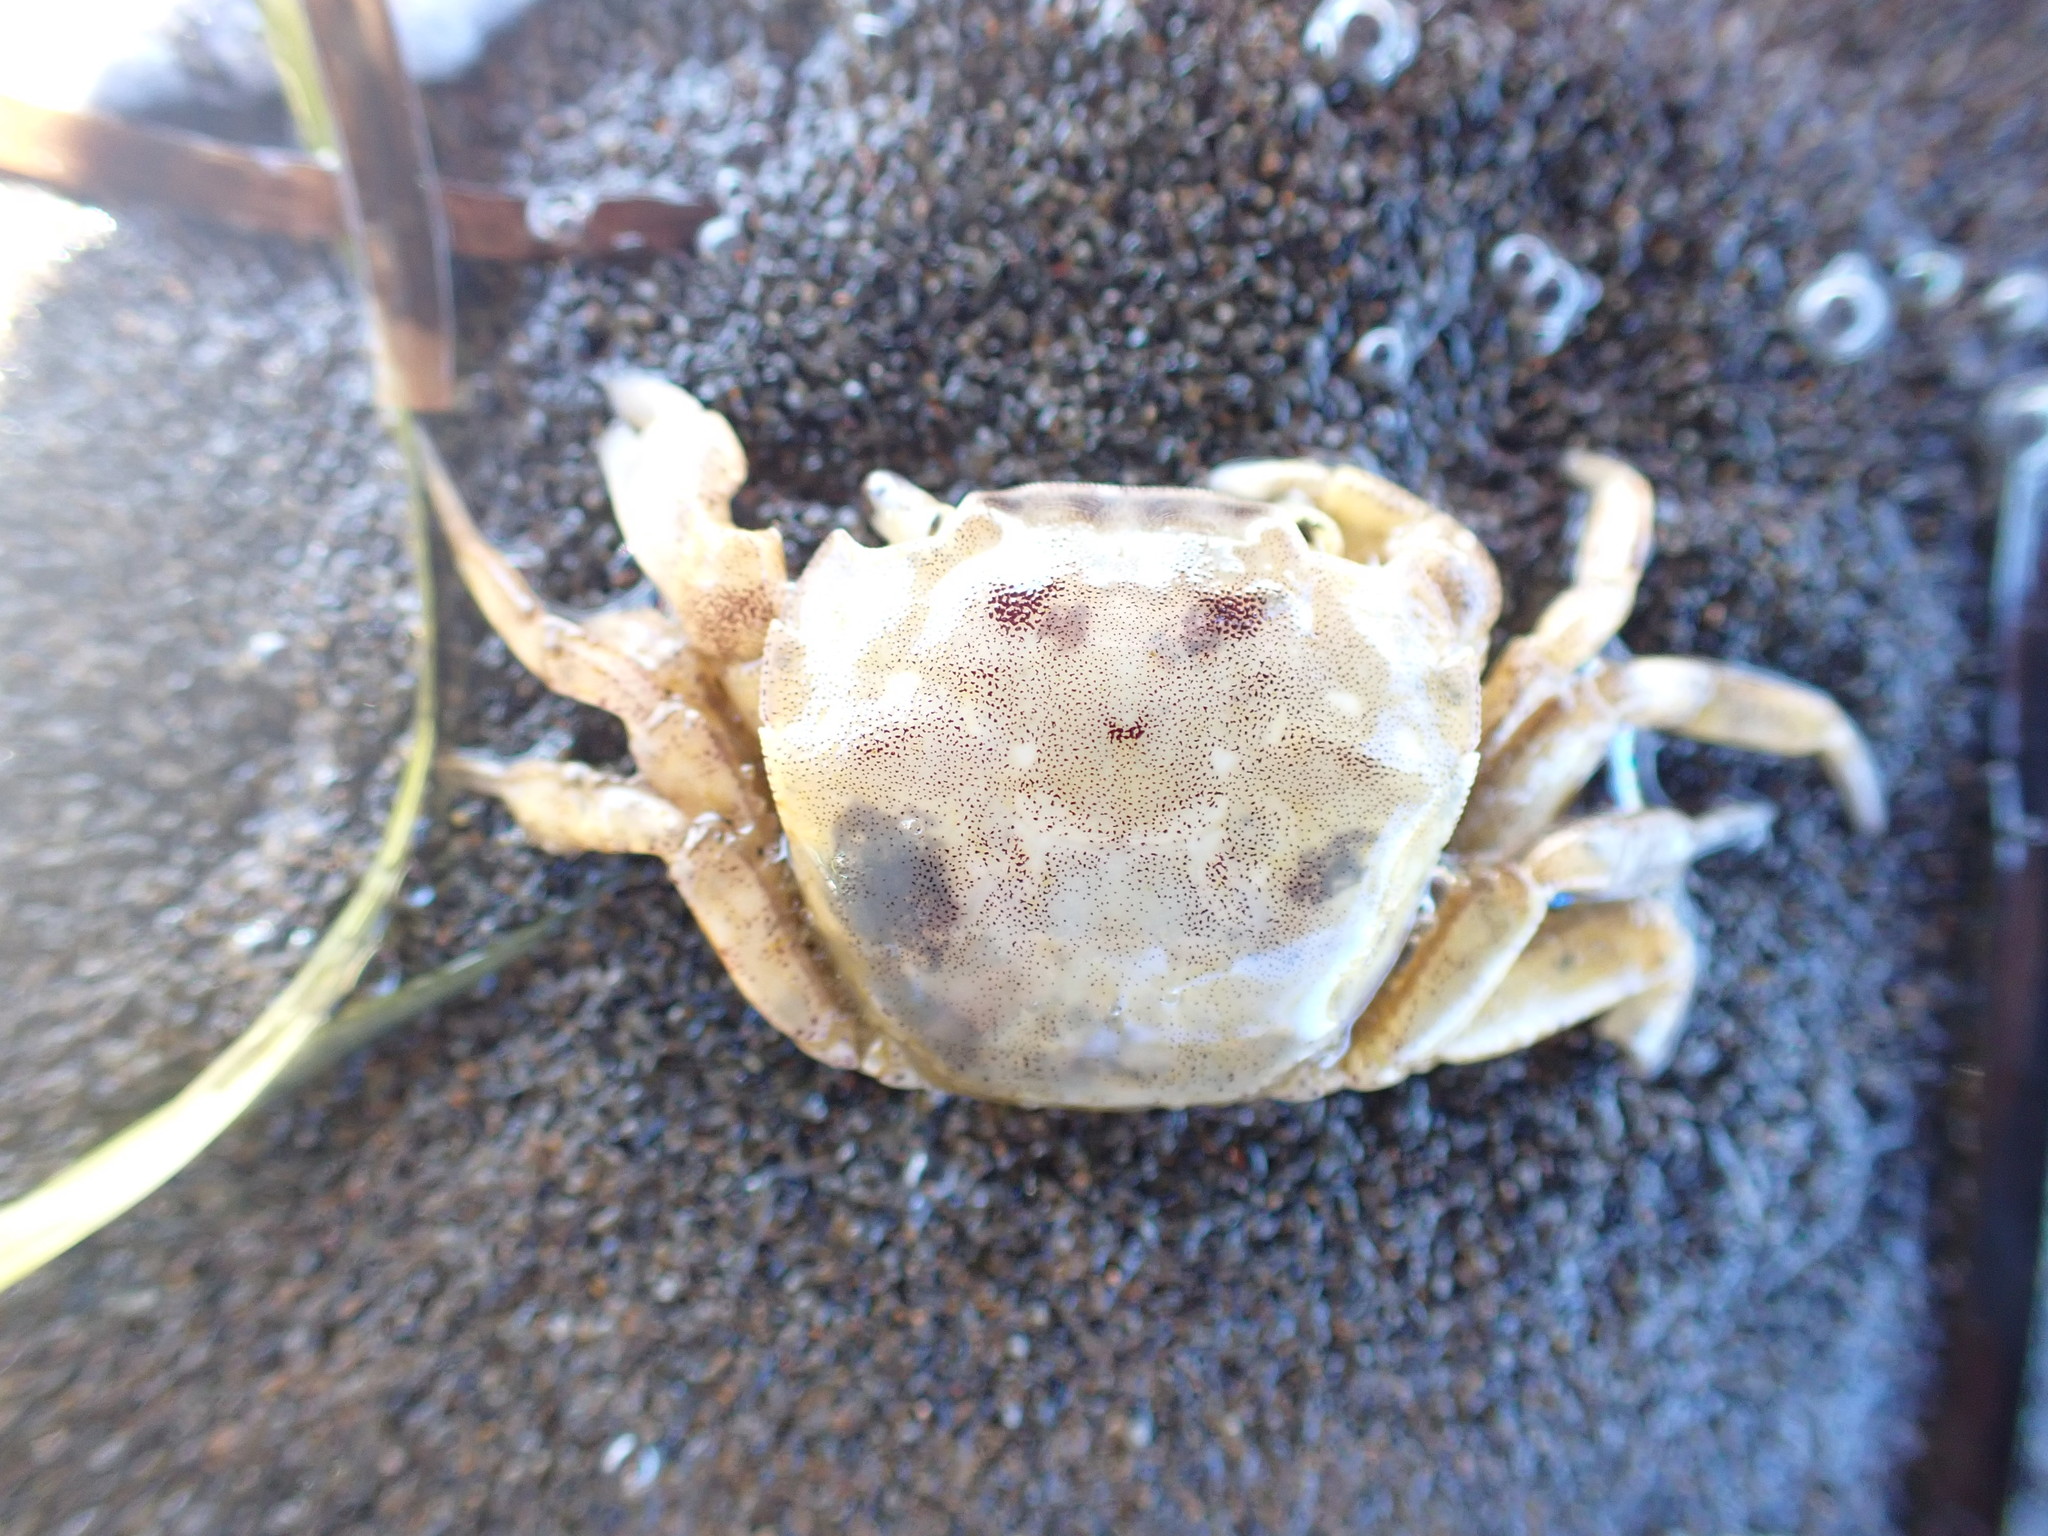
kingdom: Animalia
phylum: Arthropoda
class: Malacostraca
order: Decapoda
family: Varunidae
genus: Hemigrapsus
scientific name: Hemigrapsus crenulatus
